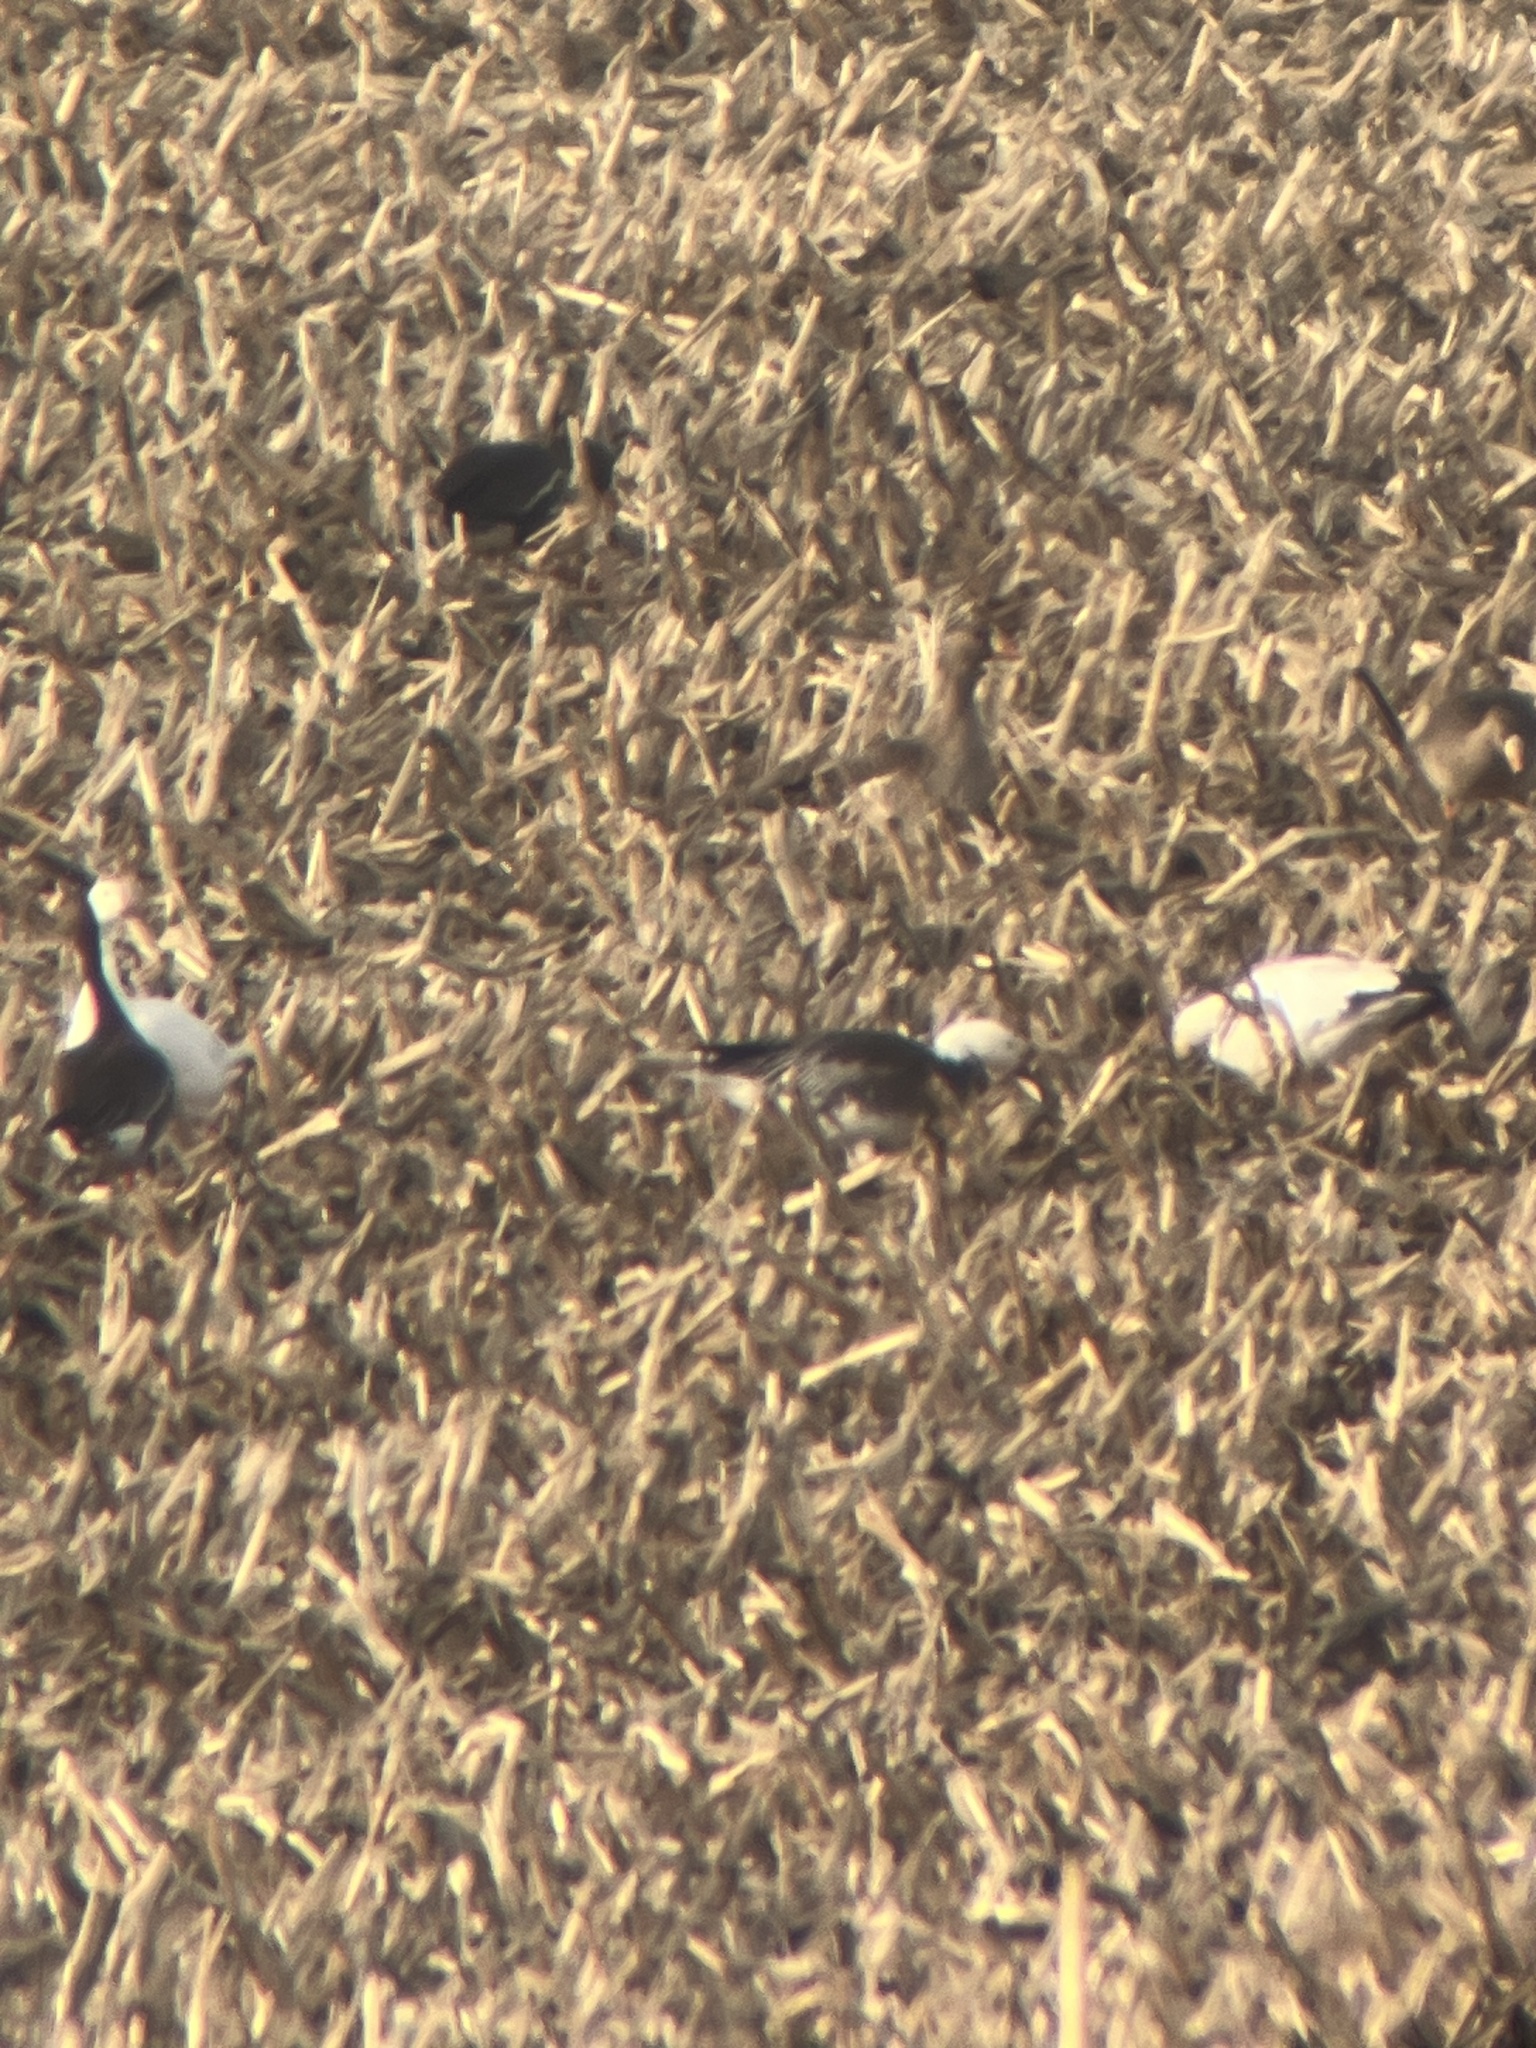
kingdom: Animalia
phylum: Chordata
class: Aves
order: Anseriformes
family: Anatidae
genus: Anser
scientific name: Anser caerulescens
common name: Snow goose
